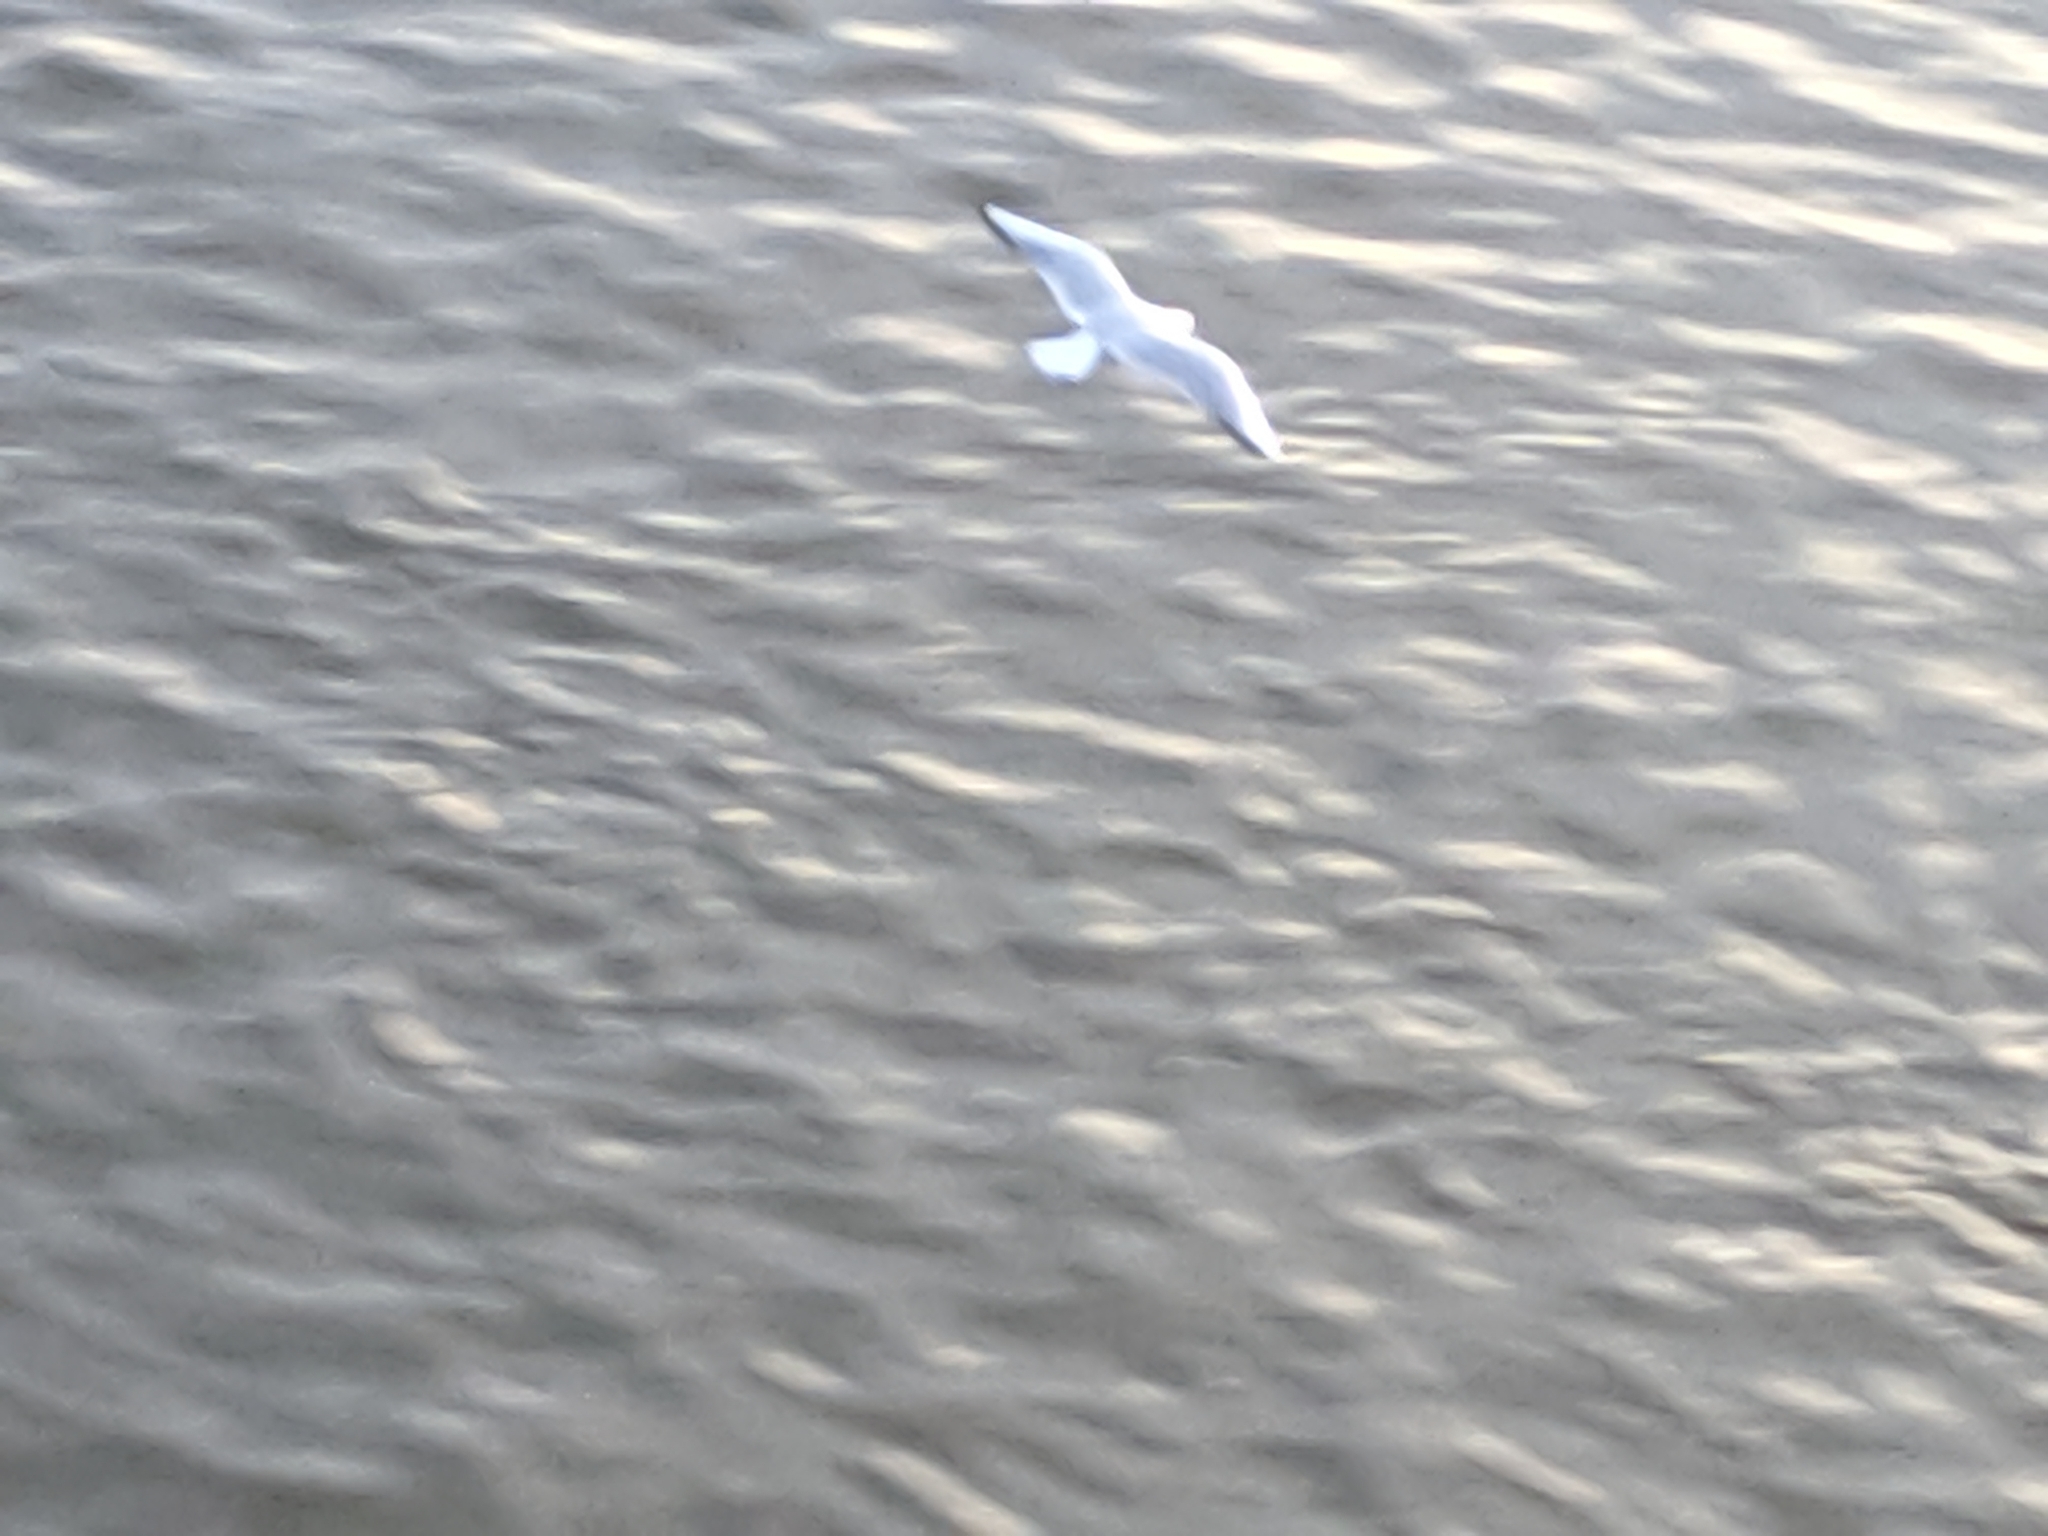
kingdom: Animalia
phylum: Chordata
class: Aves
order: Charadriiformes
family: Laridae
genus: Chroicocephalus
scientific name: Chroicocephalus ridibundus
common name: Black-headed gull
